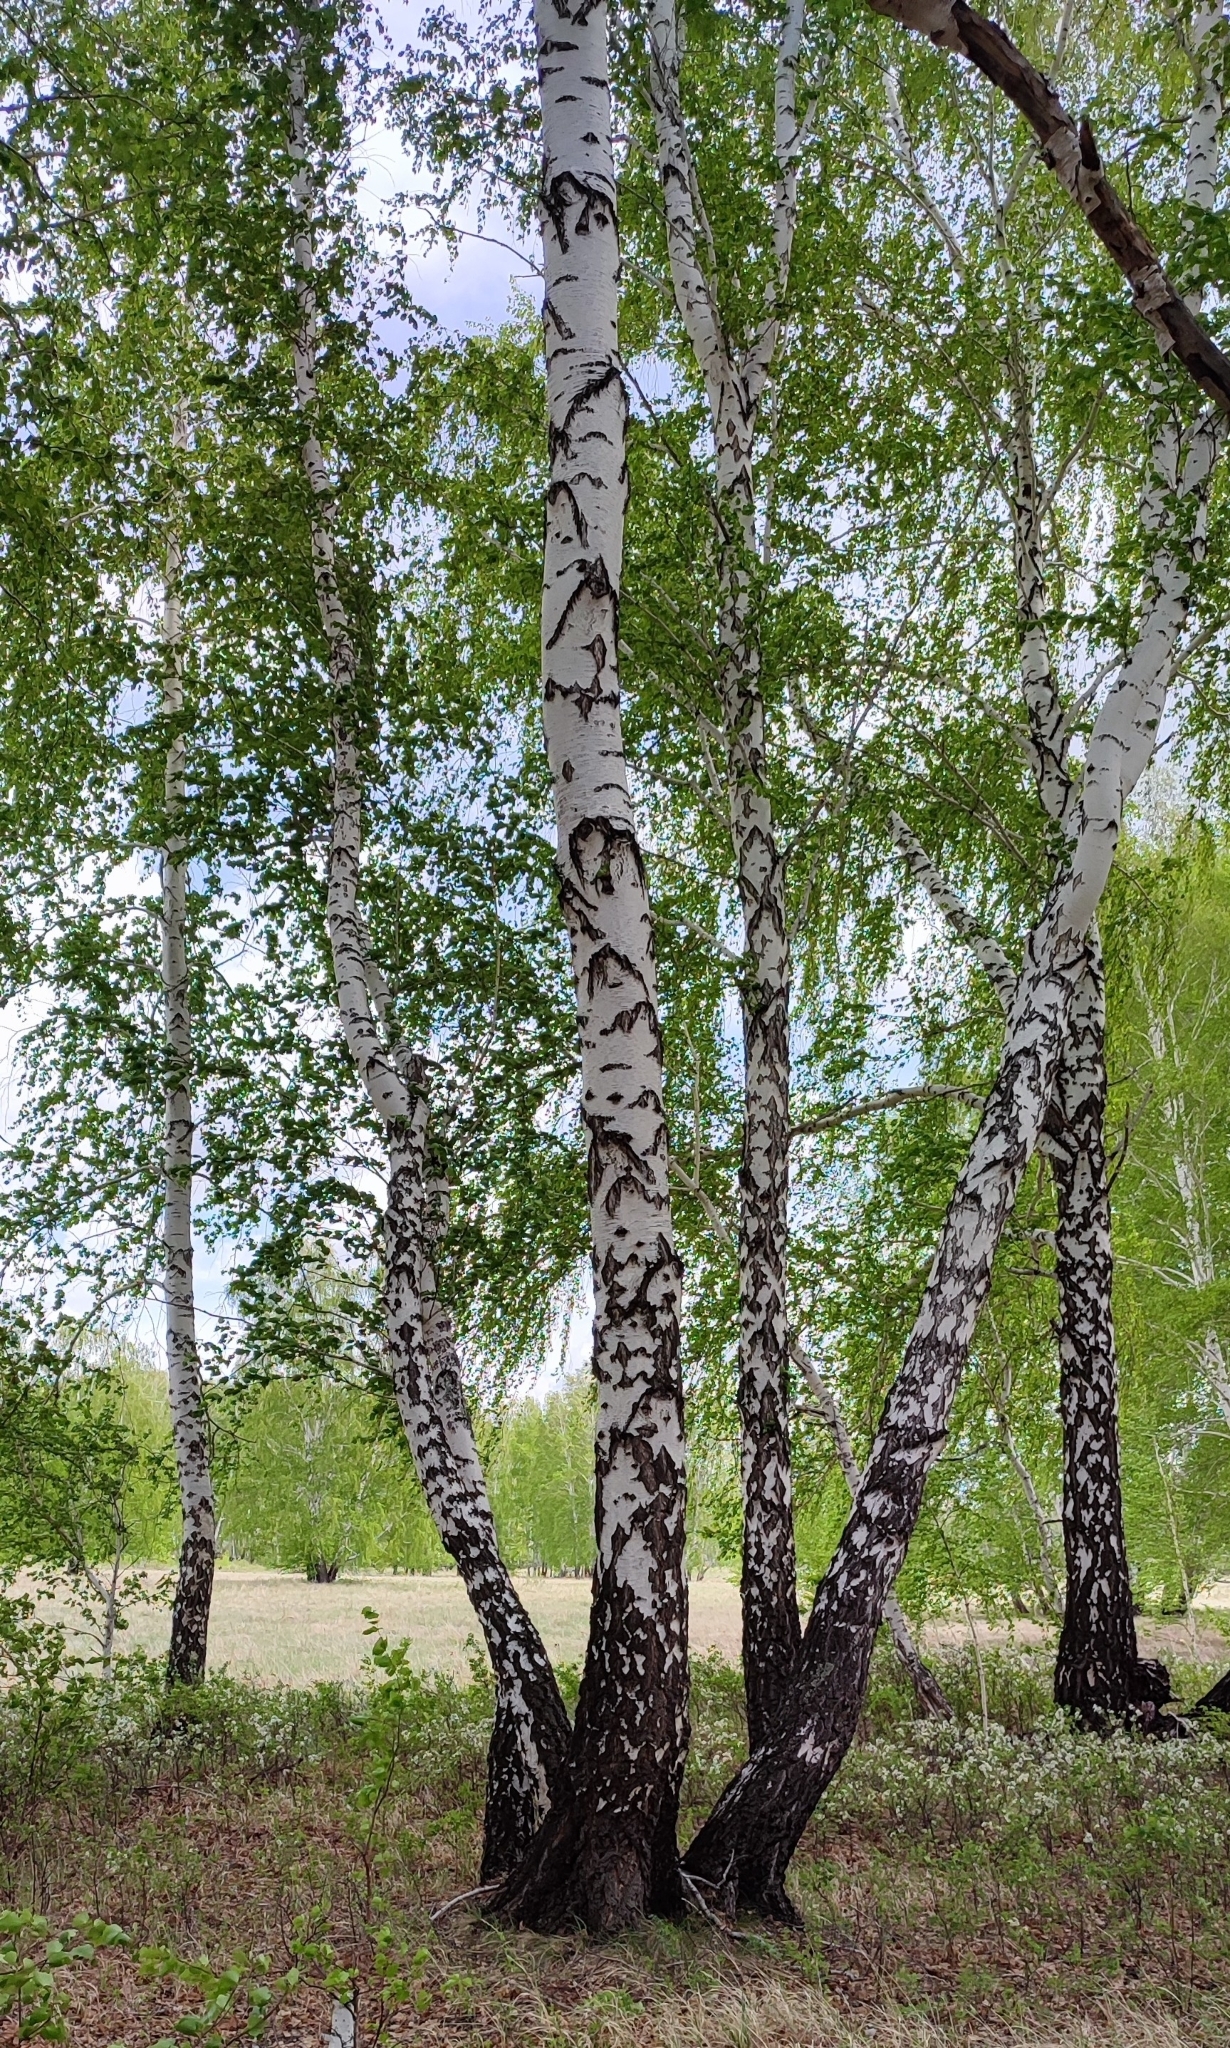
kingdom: Plantae
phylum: Tracheophyta
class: Magnoliopsida
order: Fagales
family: Betulaceae
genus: Betula
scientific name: Betula pendula
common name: Silver birch
